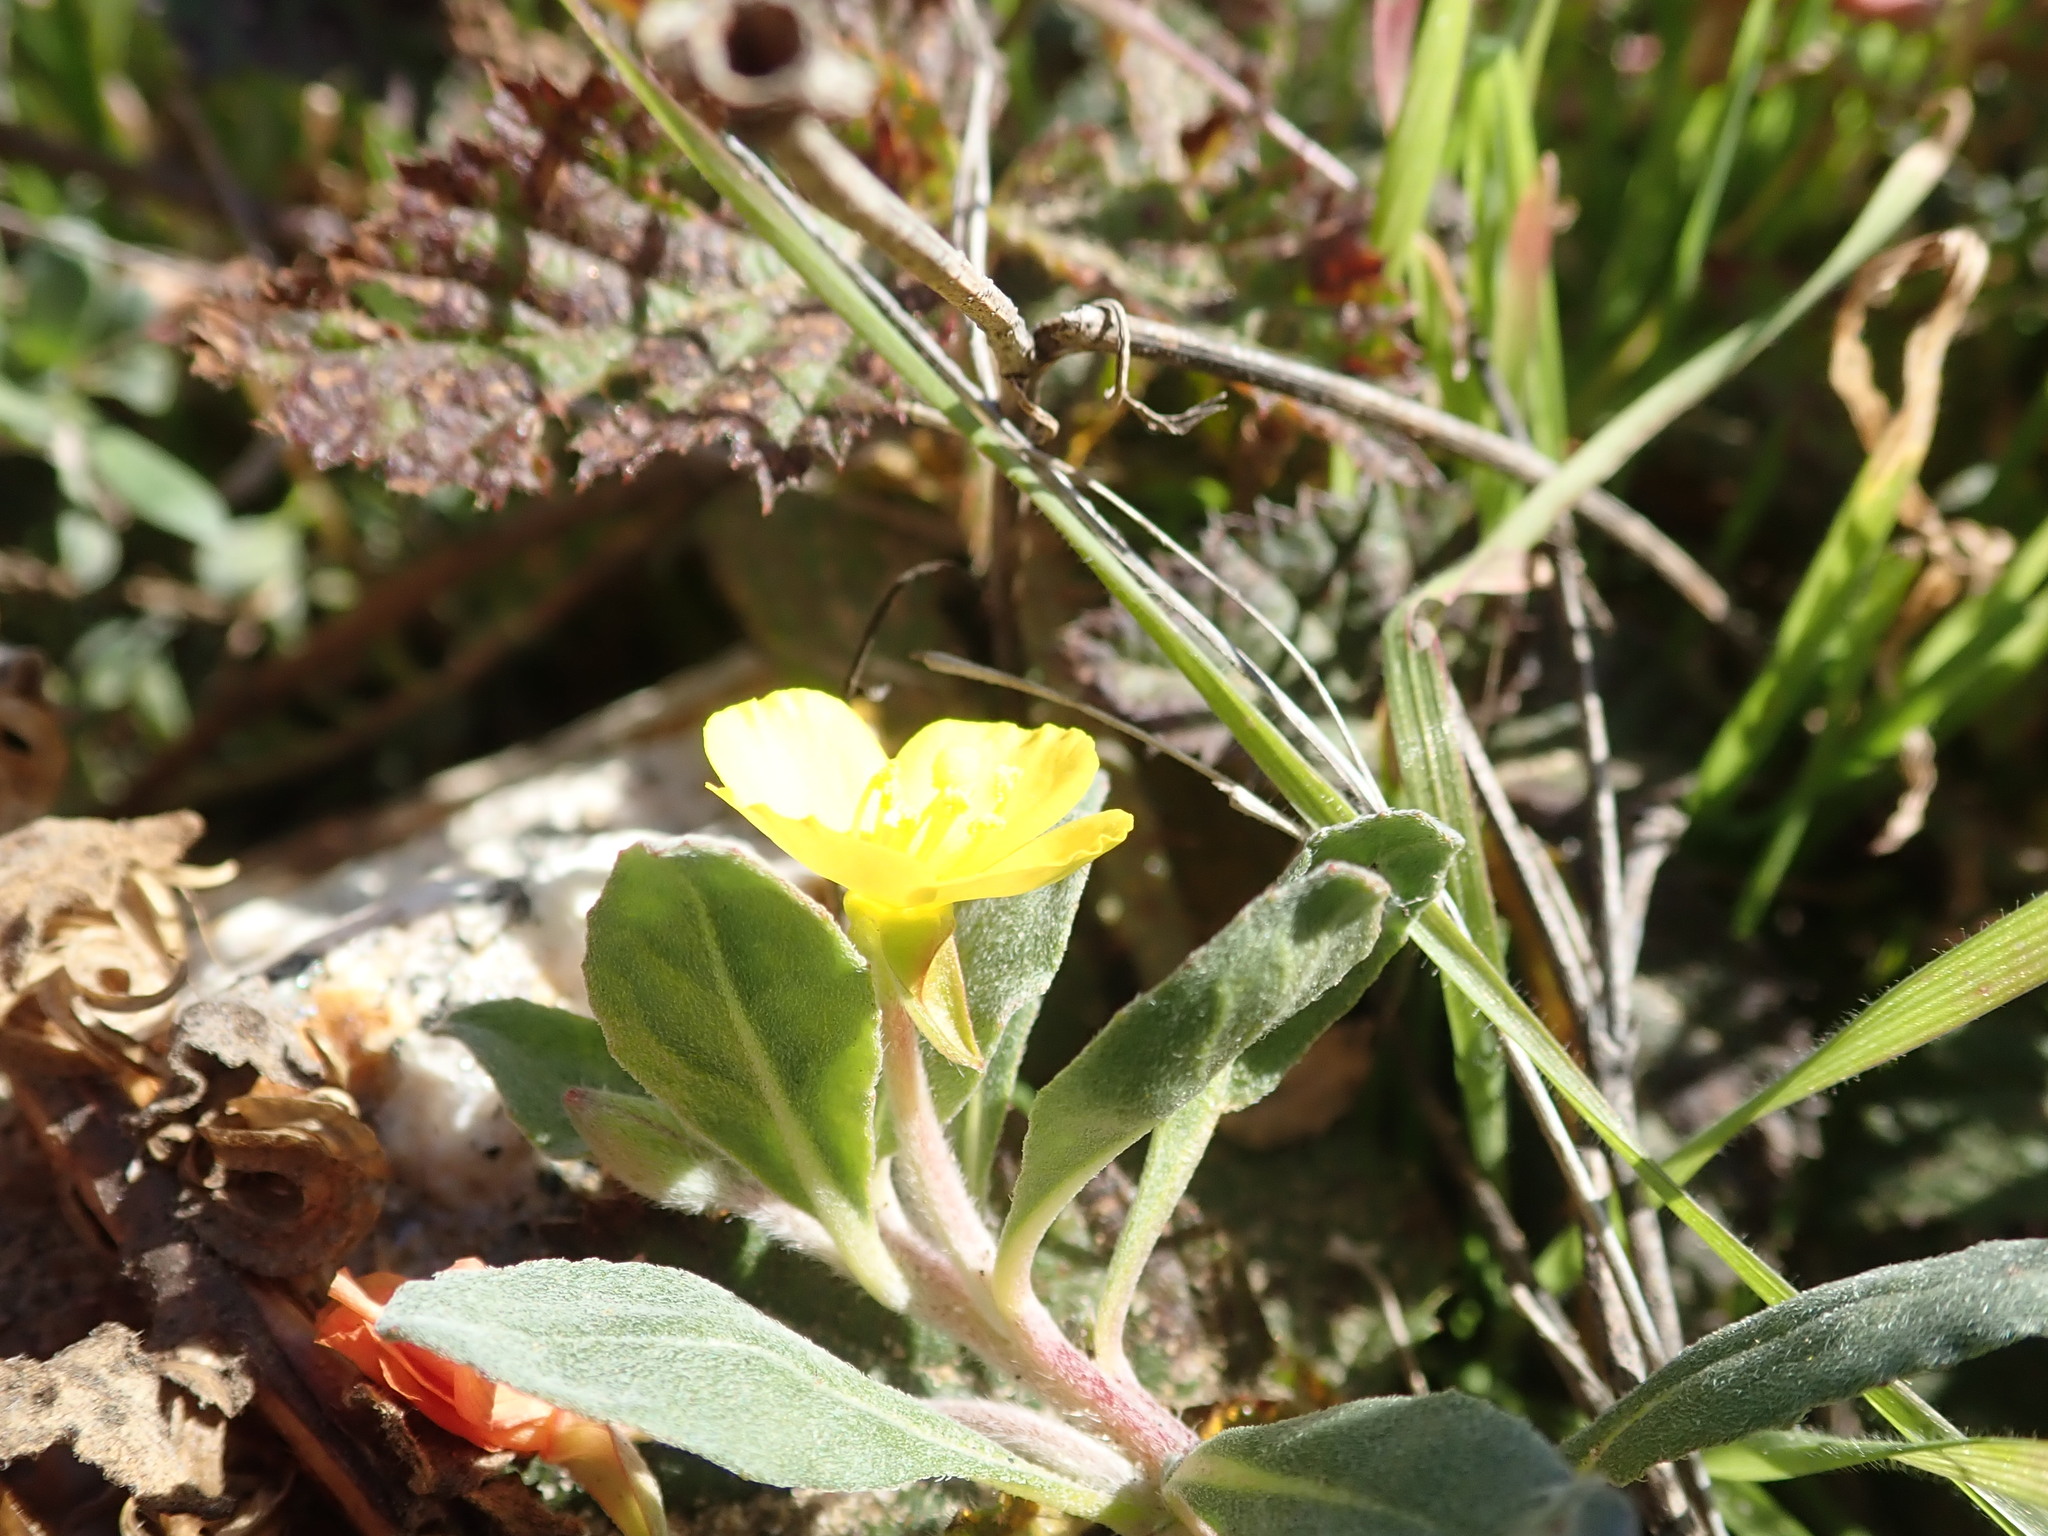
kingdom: Plantae
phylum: Tracheophyta
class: Magnoliopsida
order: Myrtales
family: Onagraceae
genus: Camissoniopsis
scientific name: Camissoniopsis cheiranthifolia
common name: Beach suncup
